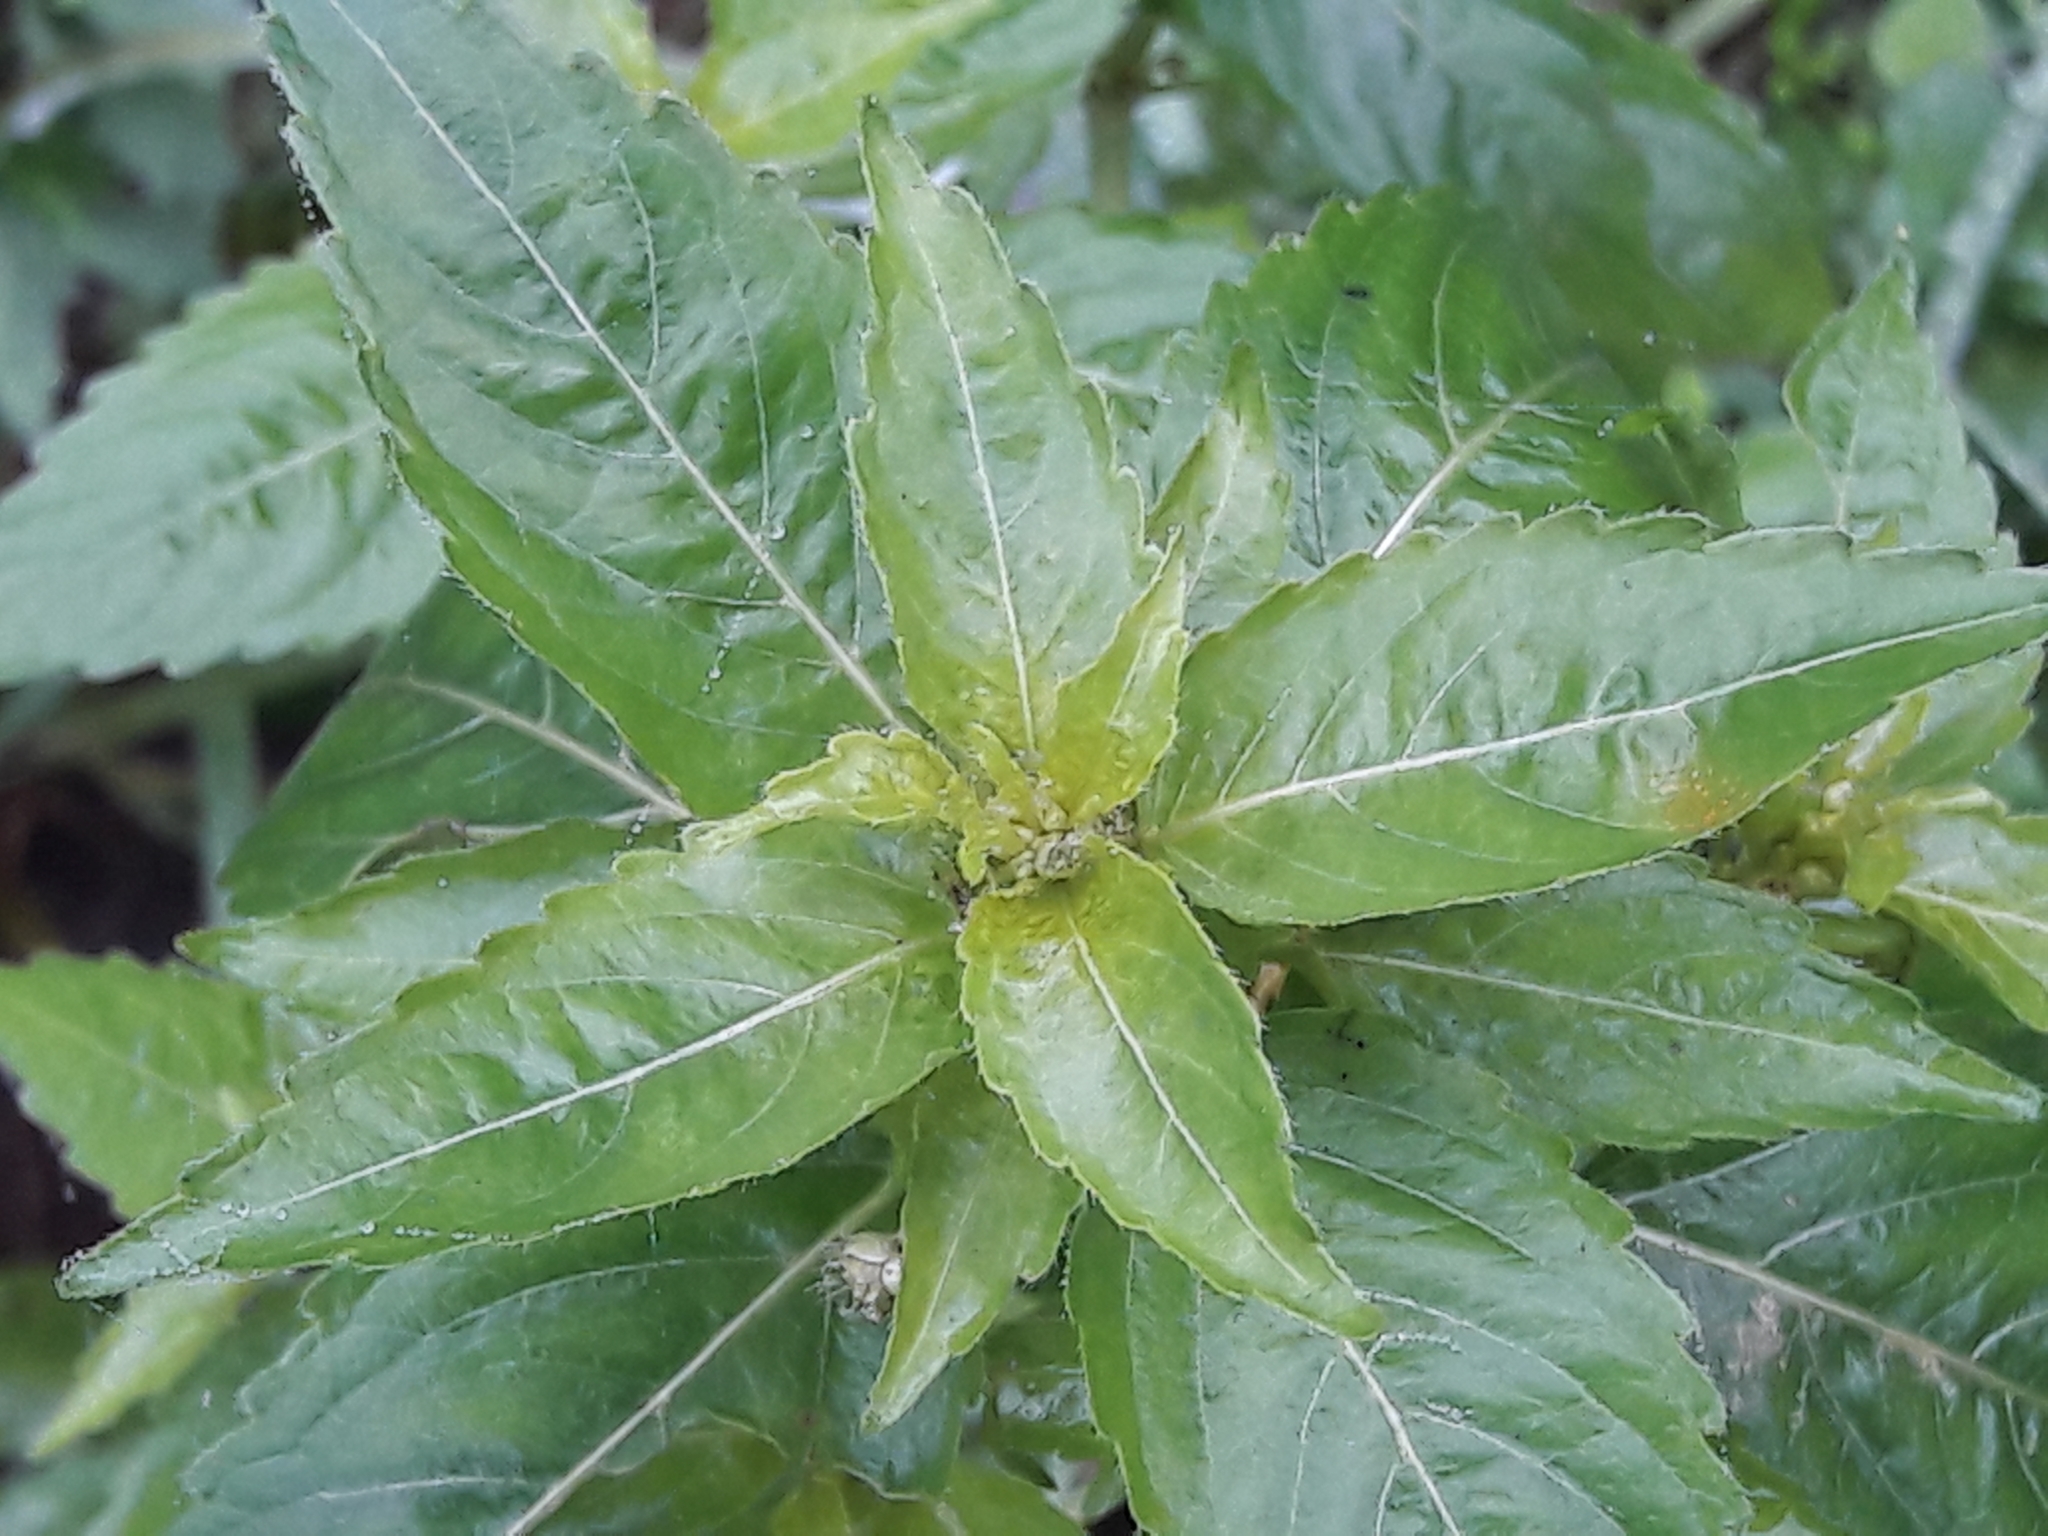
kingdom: Plantae
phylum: Tracheophyta
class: Magnoliopsida
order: Malpighiales
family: Euphorbiaceae
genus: Mercurialis
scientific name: Mercurialis annua
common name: Annual mercury
